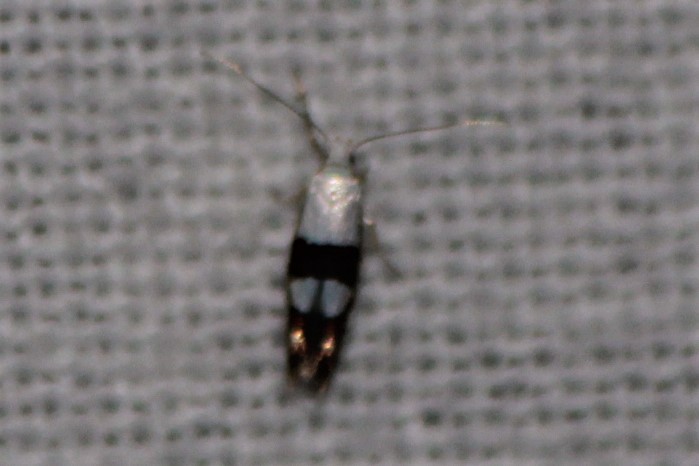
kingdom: Animalia
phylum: Arthropoda
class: Insecta
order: Lepidoptera
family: Argyresthiidae
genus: Argyresthia
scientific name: Argyresthia oreasella
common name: Cherry shoot borer moth
